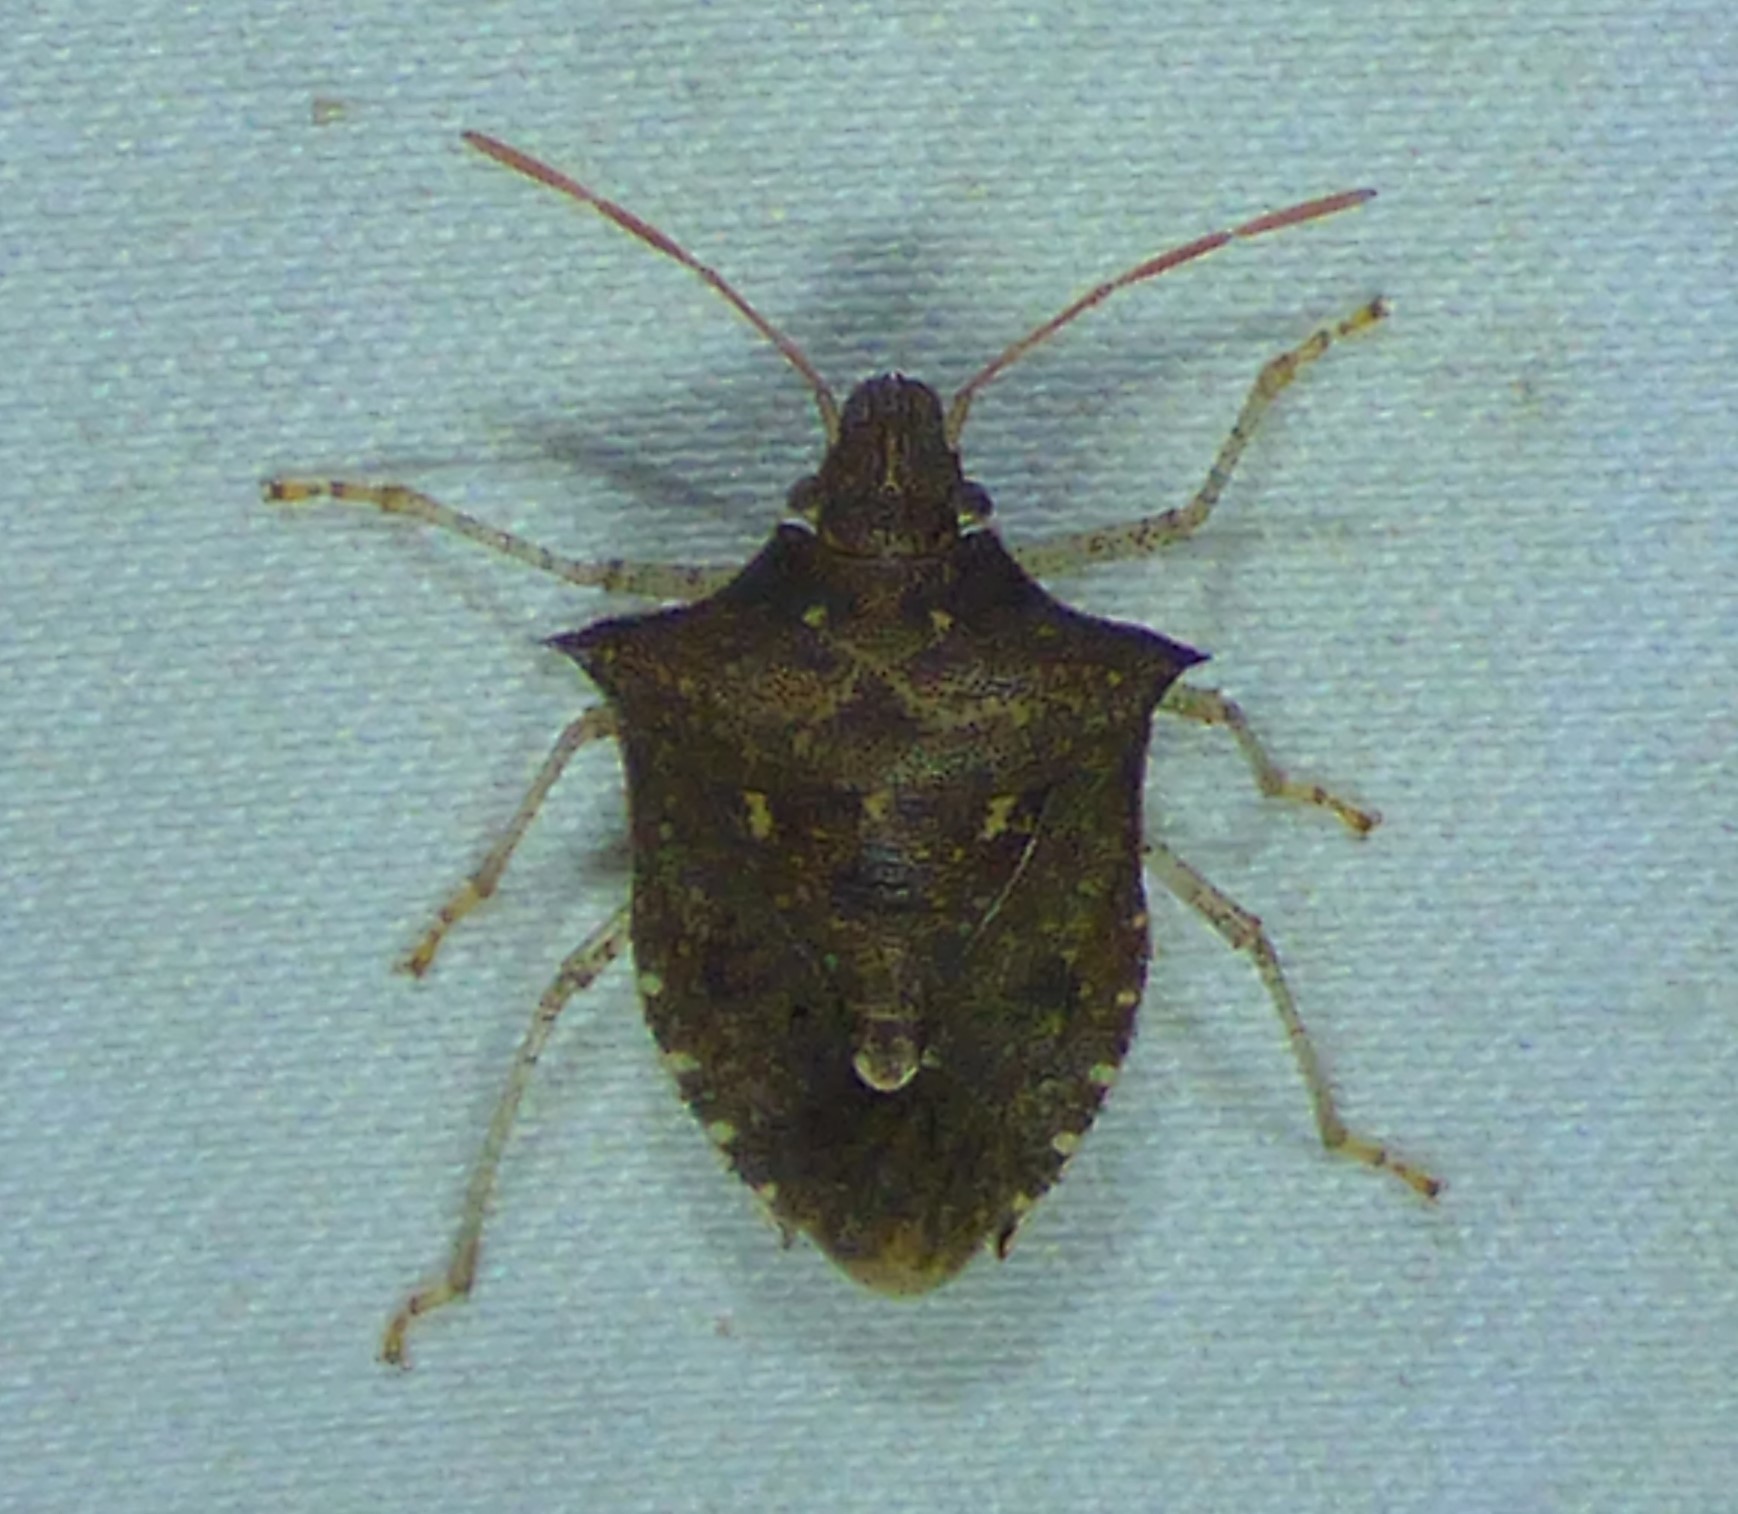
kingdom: Animalia
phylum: Arthropoda
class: Insecta
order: Hemiptera
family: Pentatomidae
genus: Euschistus
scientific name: Euschistus tristigmus
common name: Dusky stink bug
